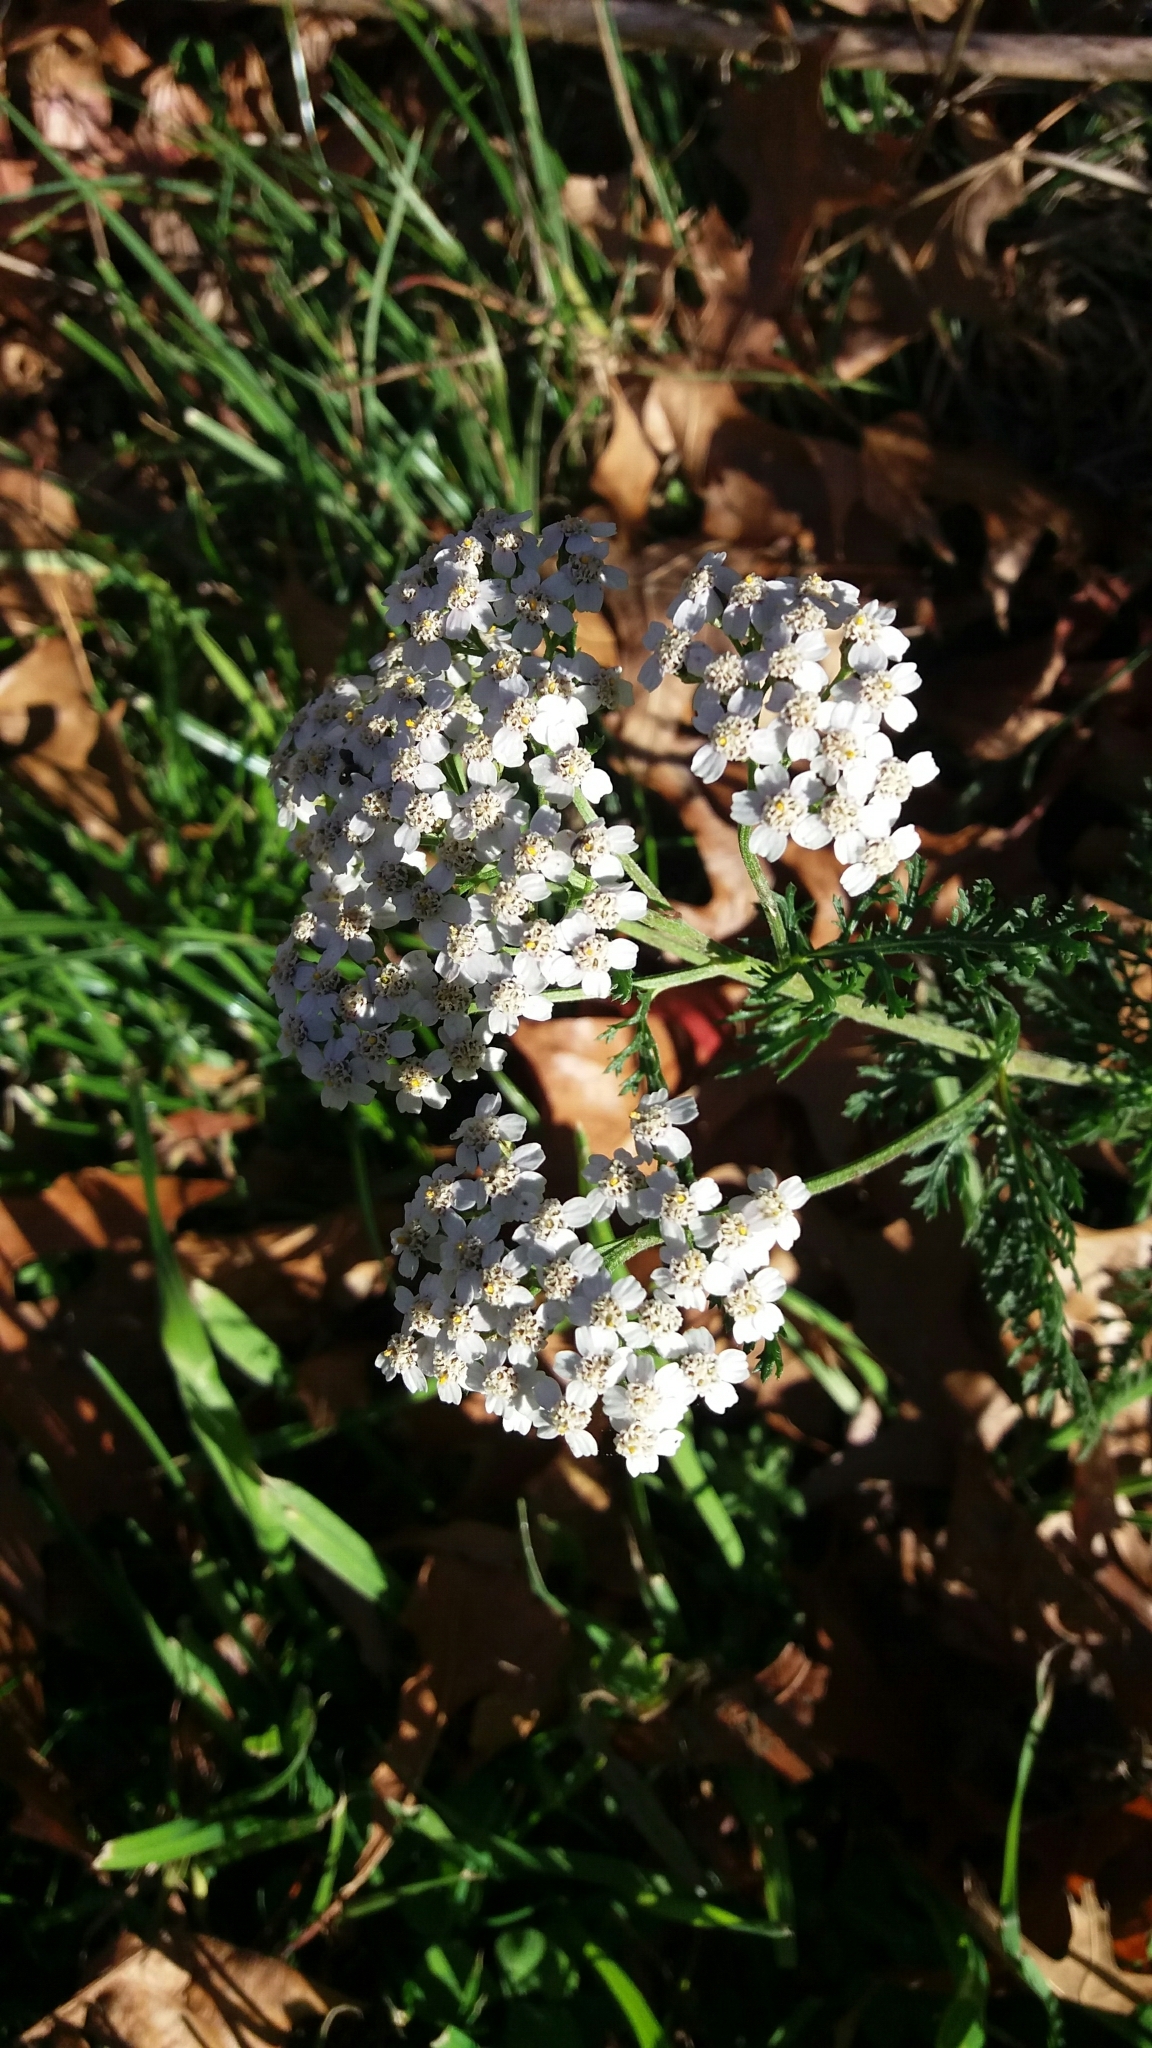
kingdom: Plantae
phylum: Tracheophyta
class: Magnoliopsida
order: Asterales
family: Asteraceae
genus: Achillea
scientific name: Achillea millefolium
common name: Yarrow
